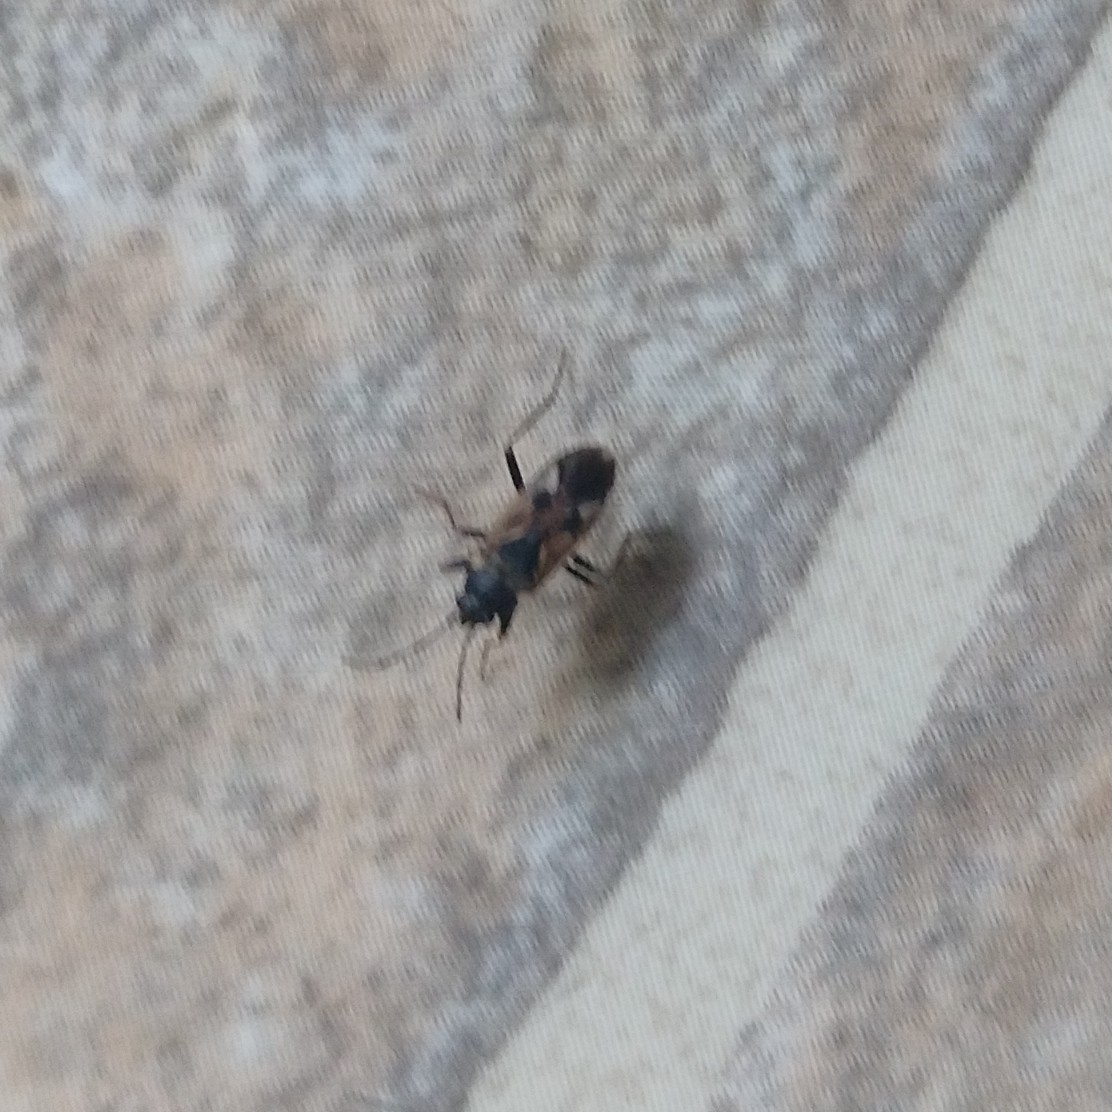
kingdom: Animalia
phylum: Arthropoda
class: Insecta
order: Hemiptera
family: Rhyparochromidae
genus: Rhyparochromus
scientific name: Rhyparochromus vulgaris
